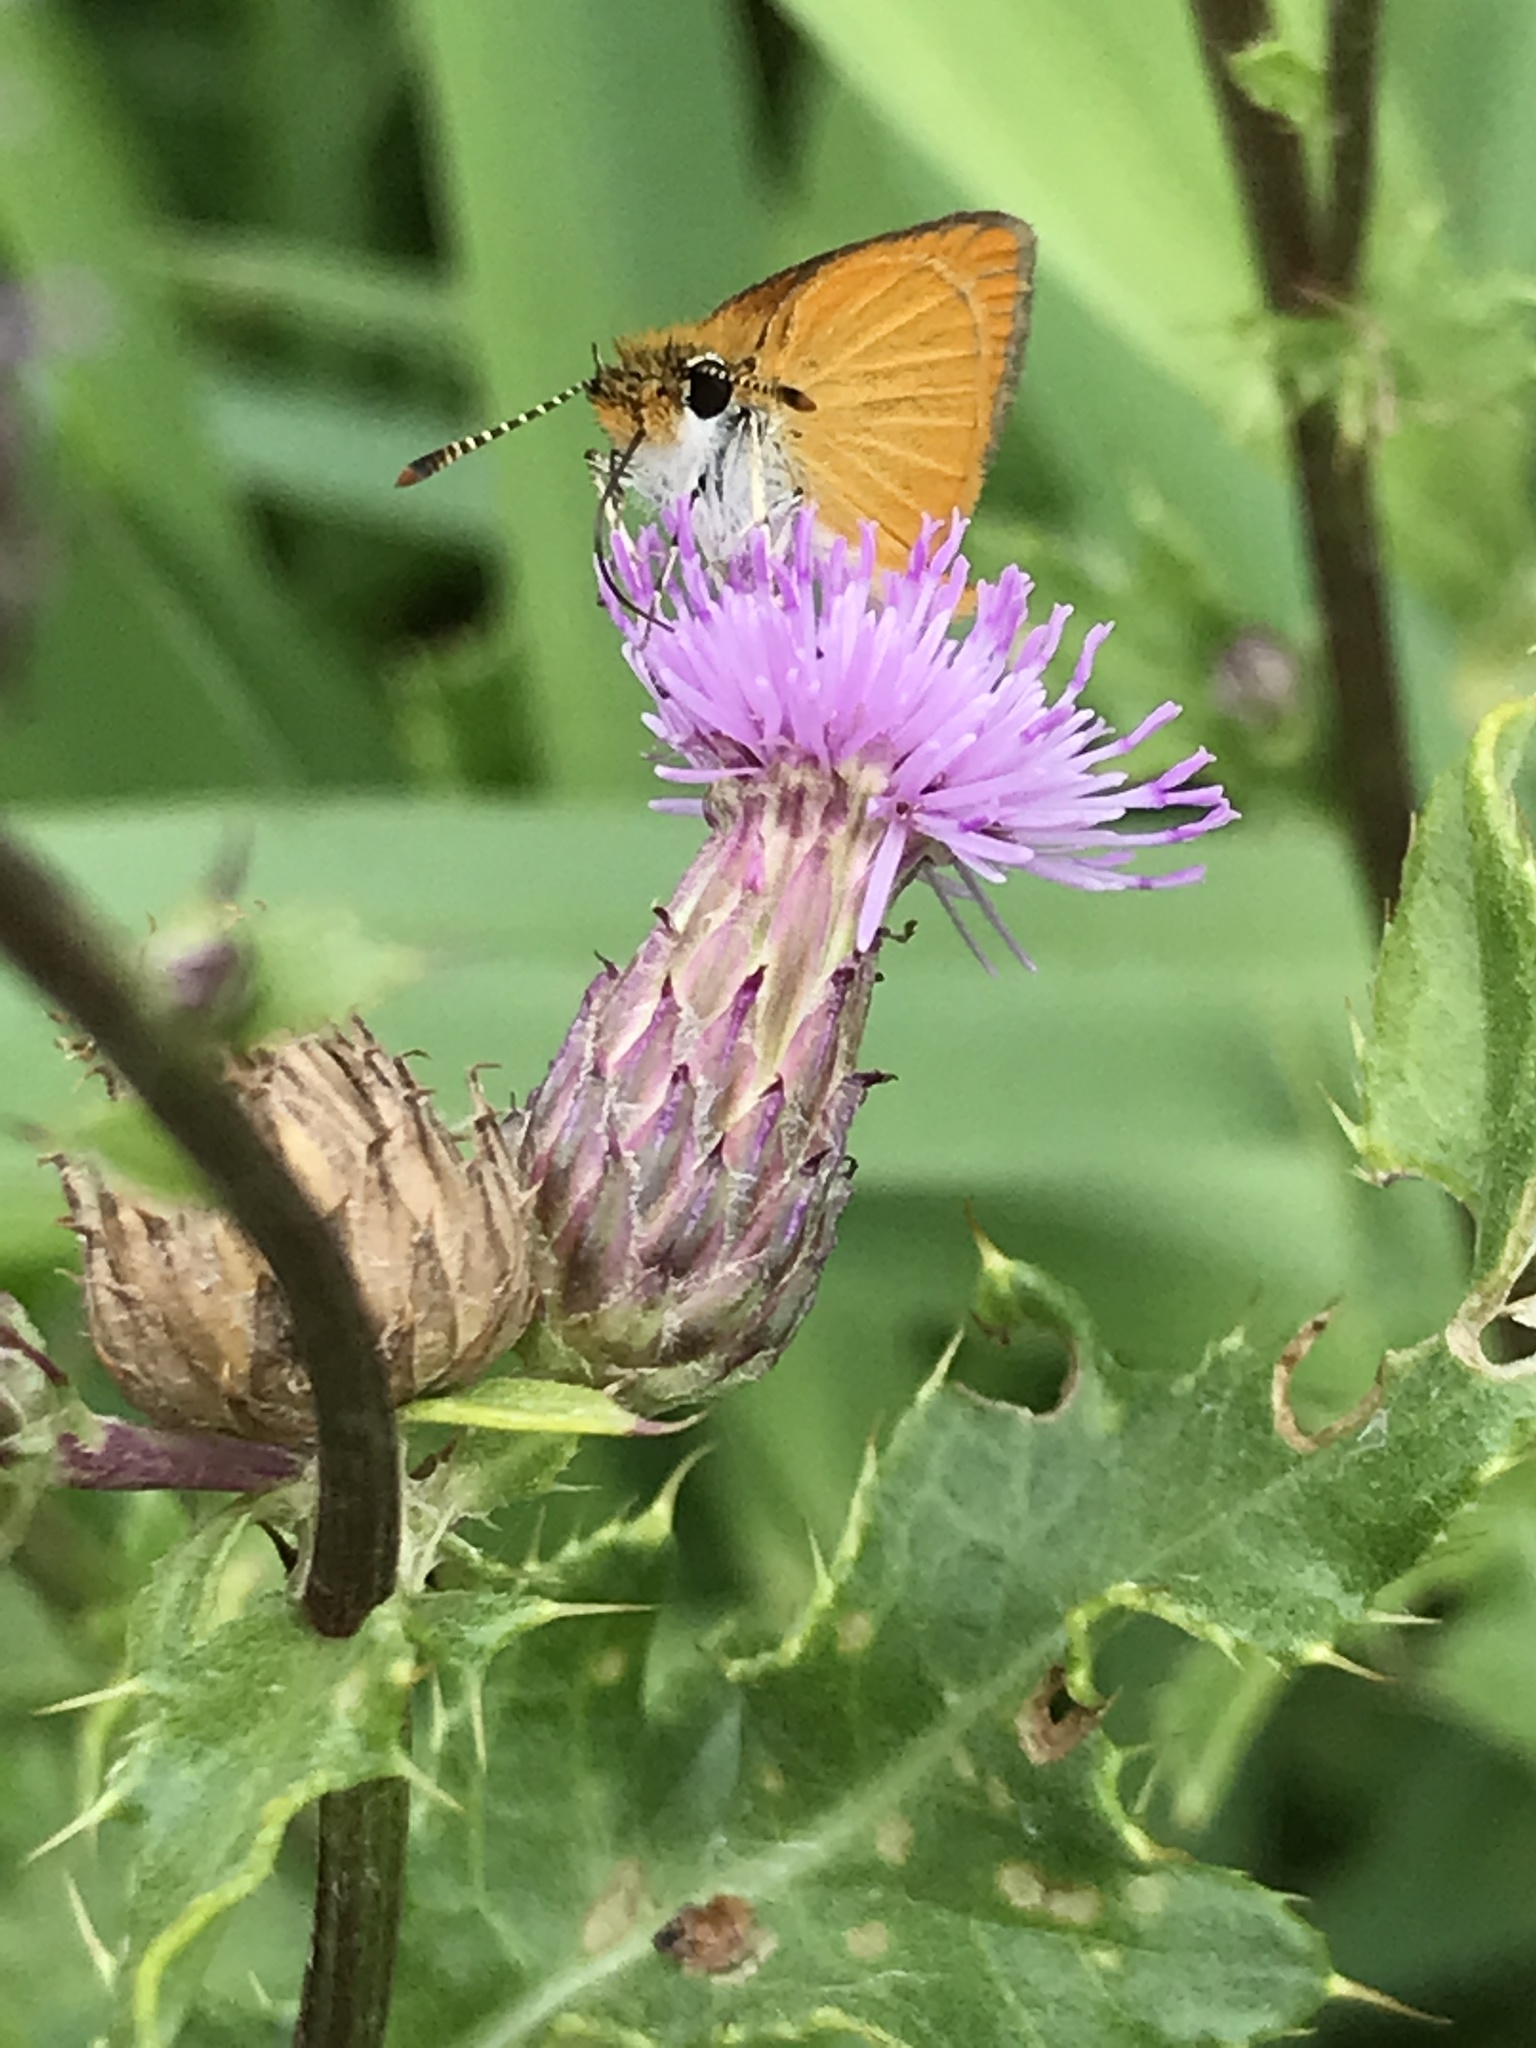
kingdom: Animalia
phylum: Arthropoda
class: Insecta
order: Lepidoptera
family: Hesperiidae
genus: Ancyloxypha
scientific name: Ancyloxypha numitor
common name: Least skipper
